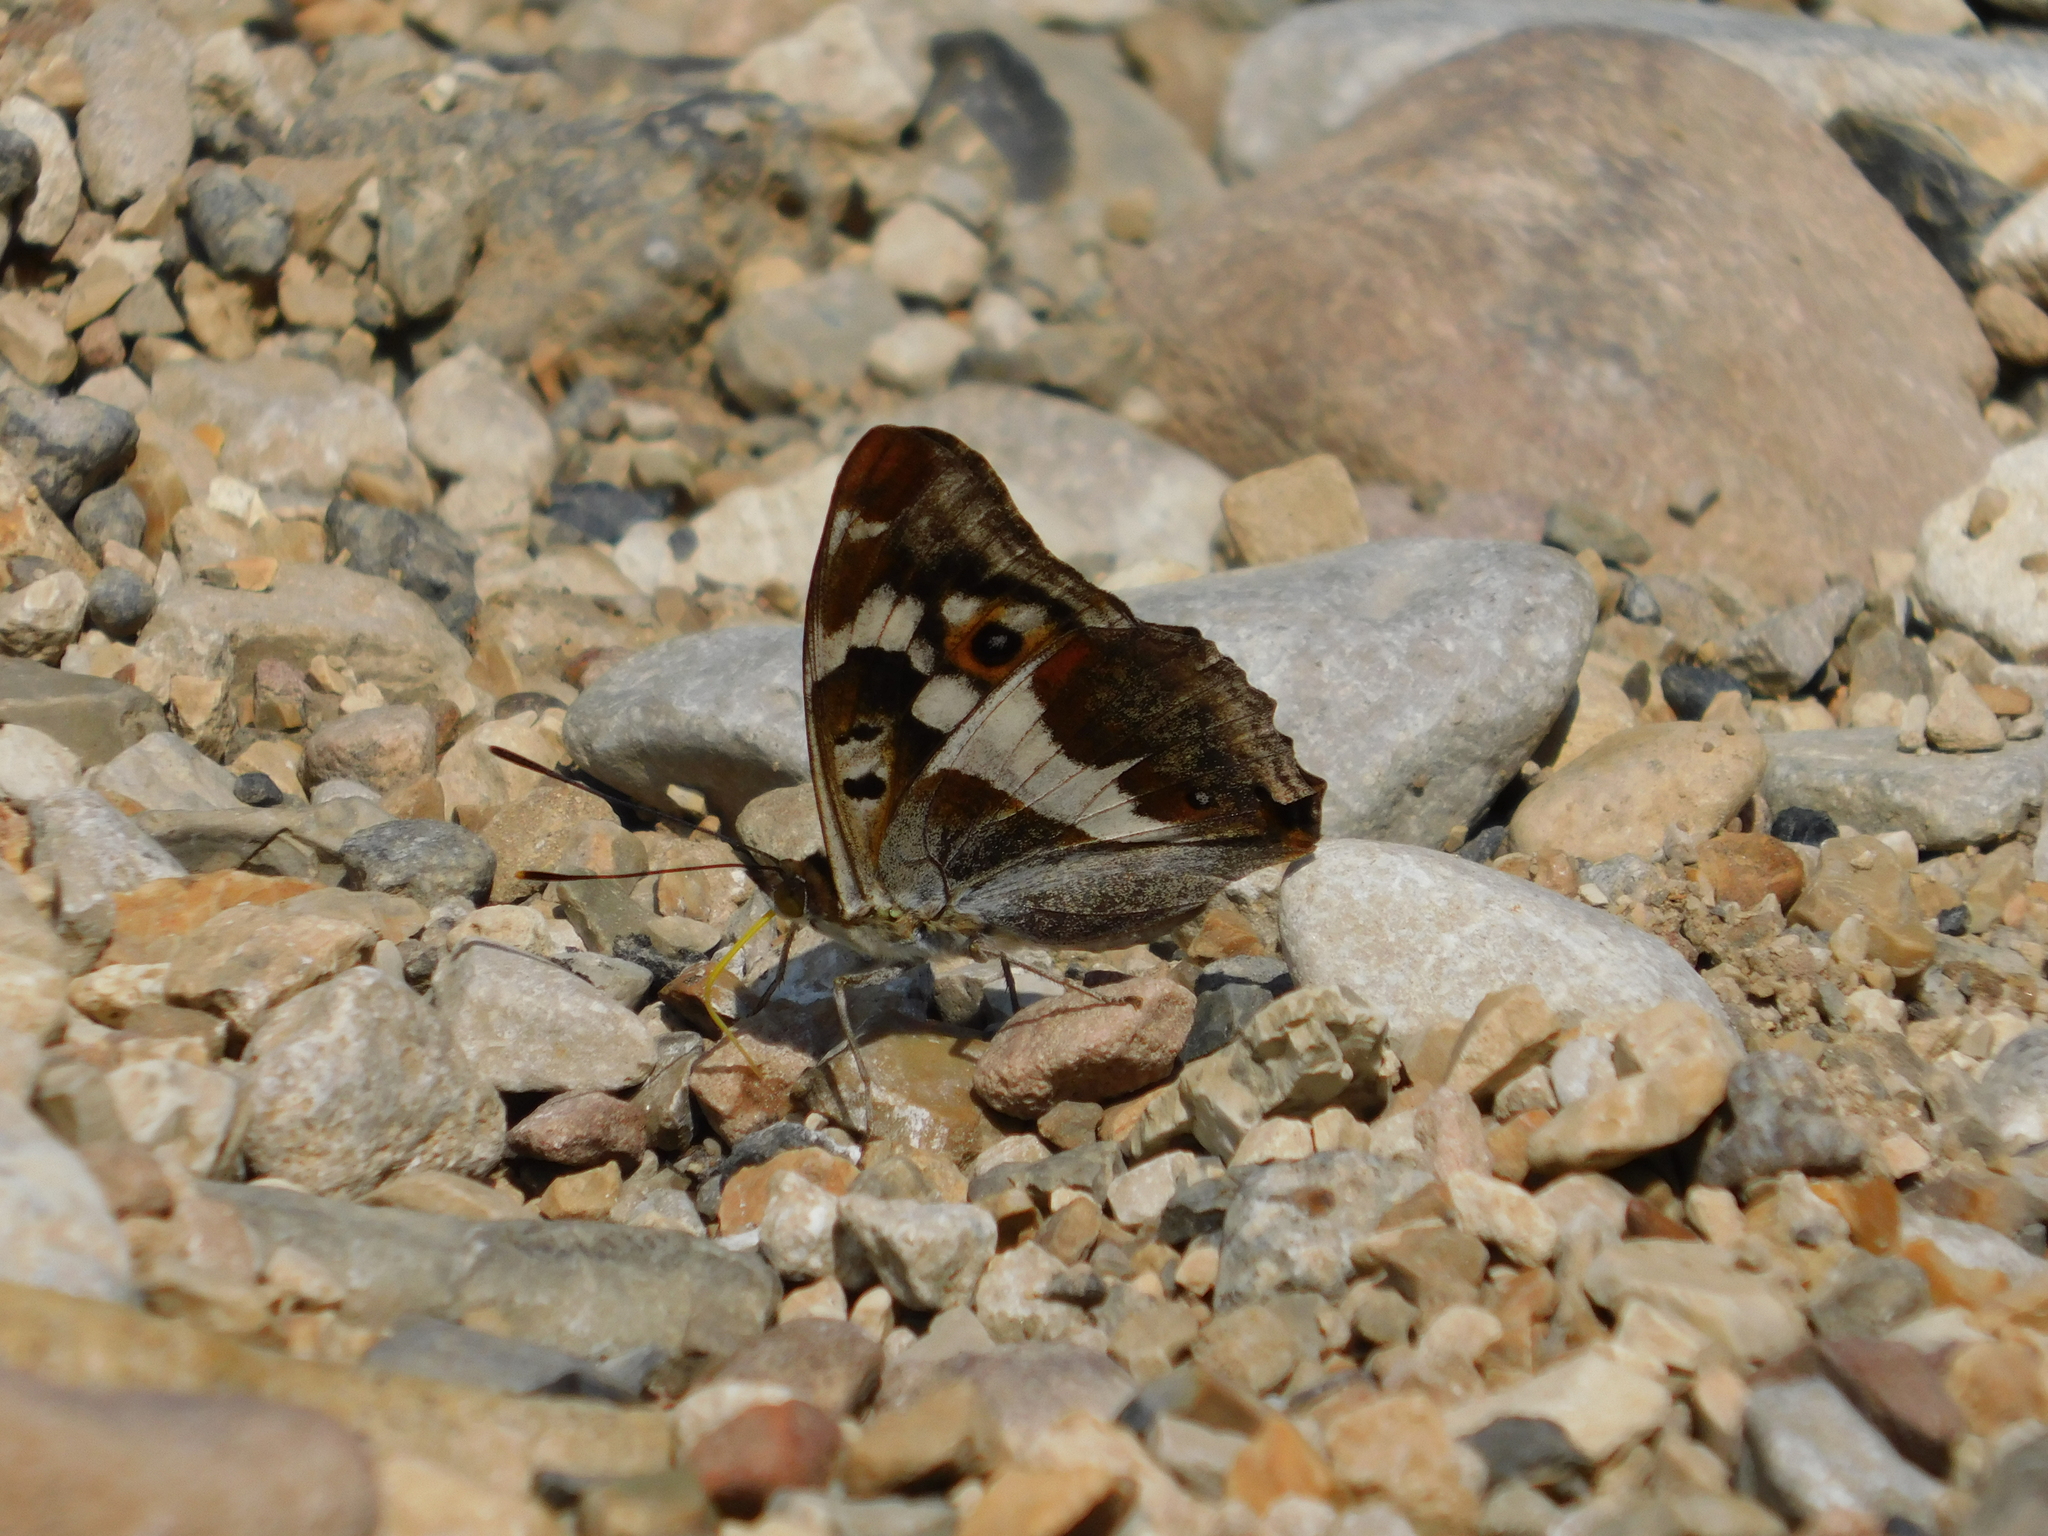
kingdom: Animalia
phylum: Arthropoda
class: Insecta
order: Lepidoptera
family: Nymphalidae
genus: Apatura
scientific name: Apatura iris
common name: Purple emperor
